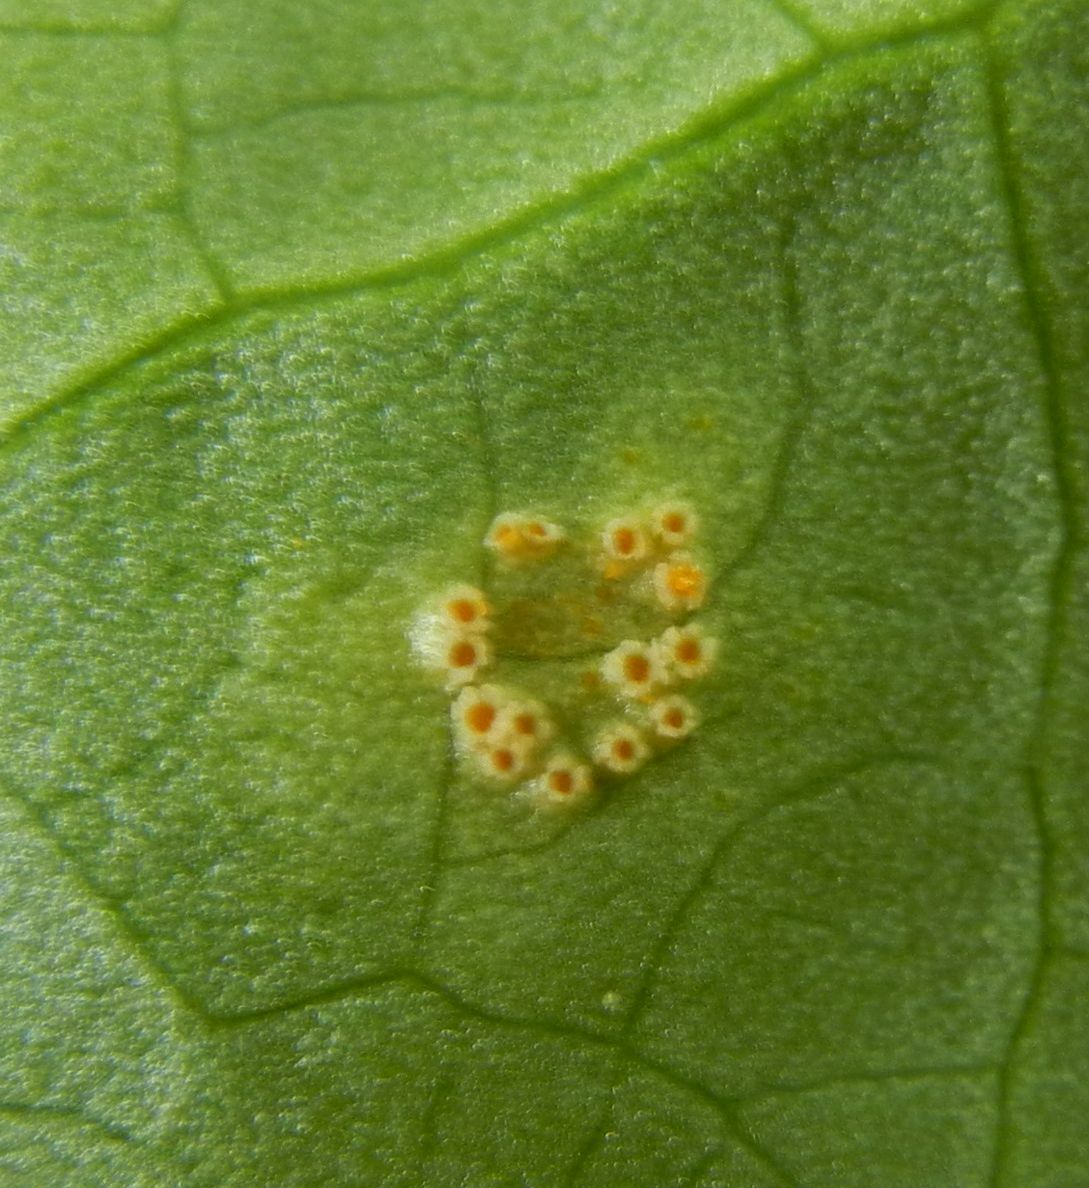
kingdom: Fungi
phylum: Basidiomycota
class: Pucciniomycetes
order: Pucciniales
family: Pucciniaceae
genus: Puccinia
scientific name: Puccinia sessilis
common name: Arum rust
